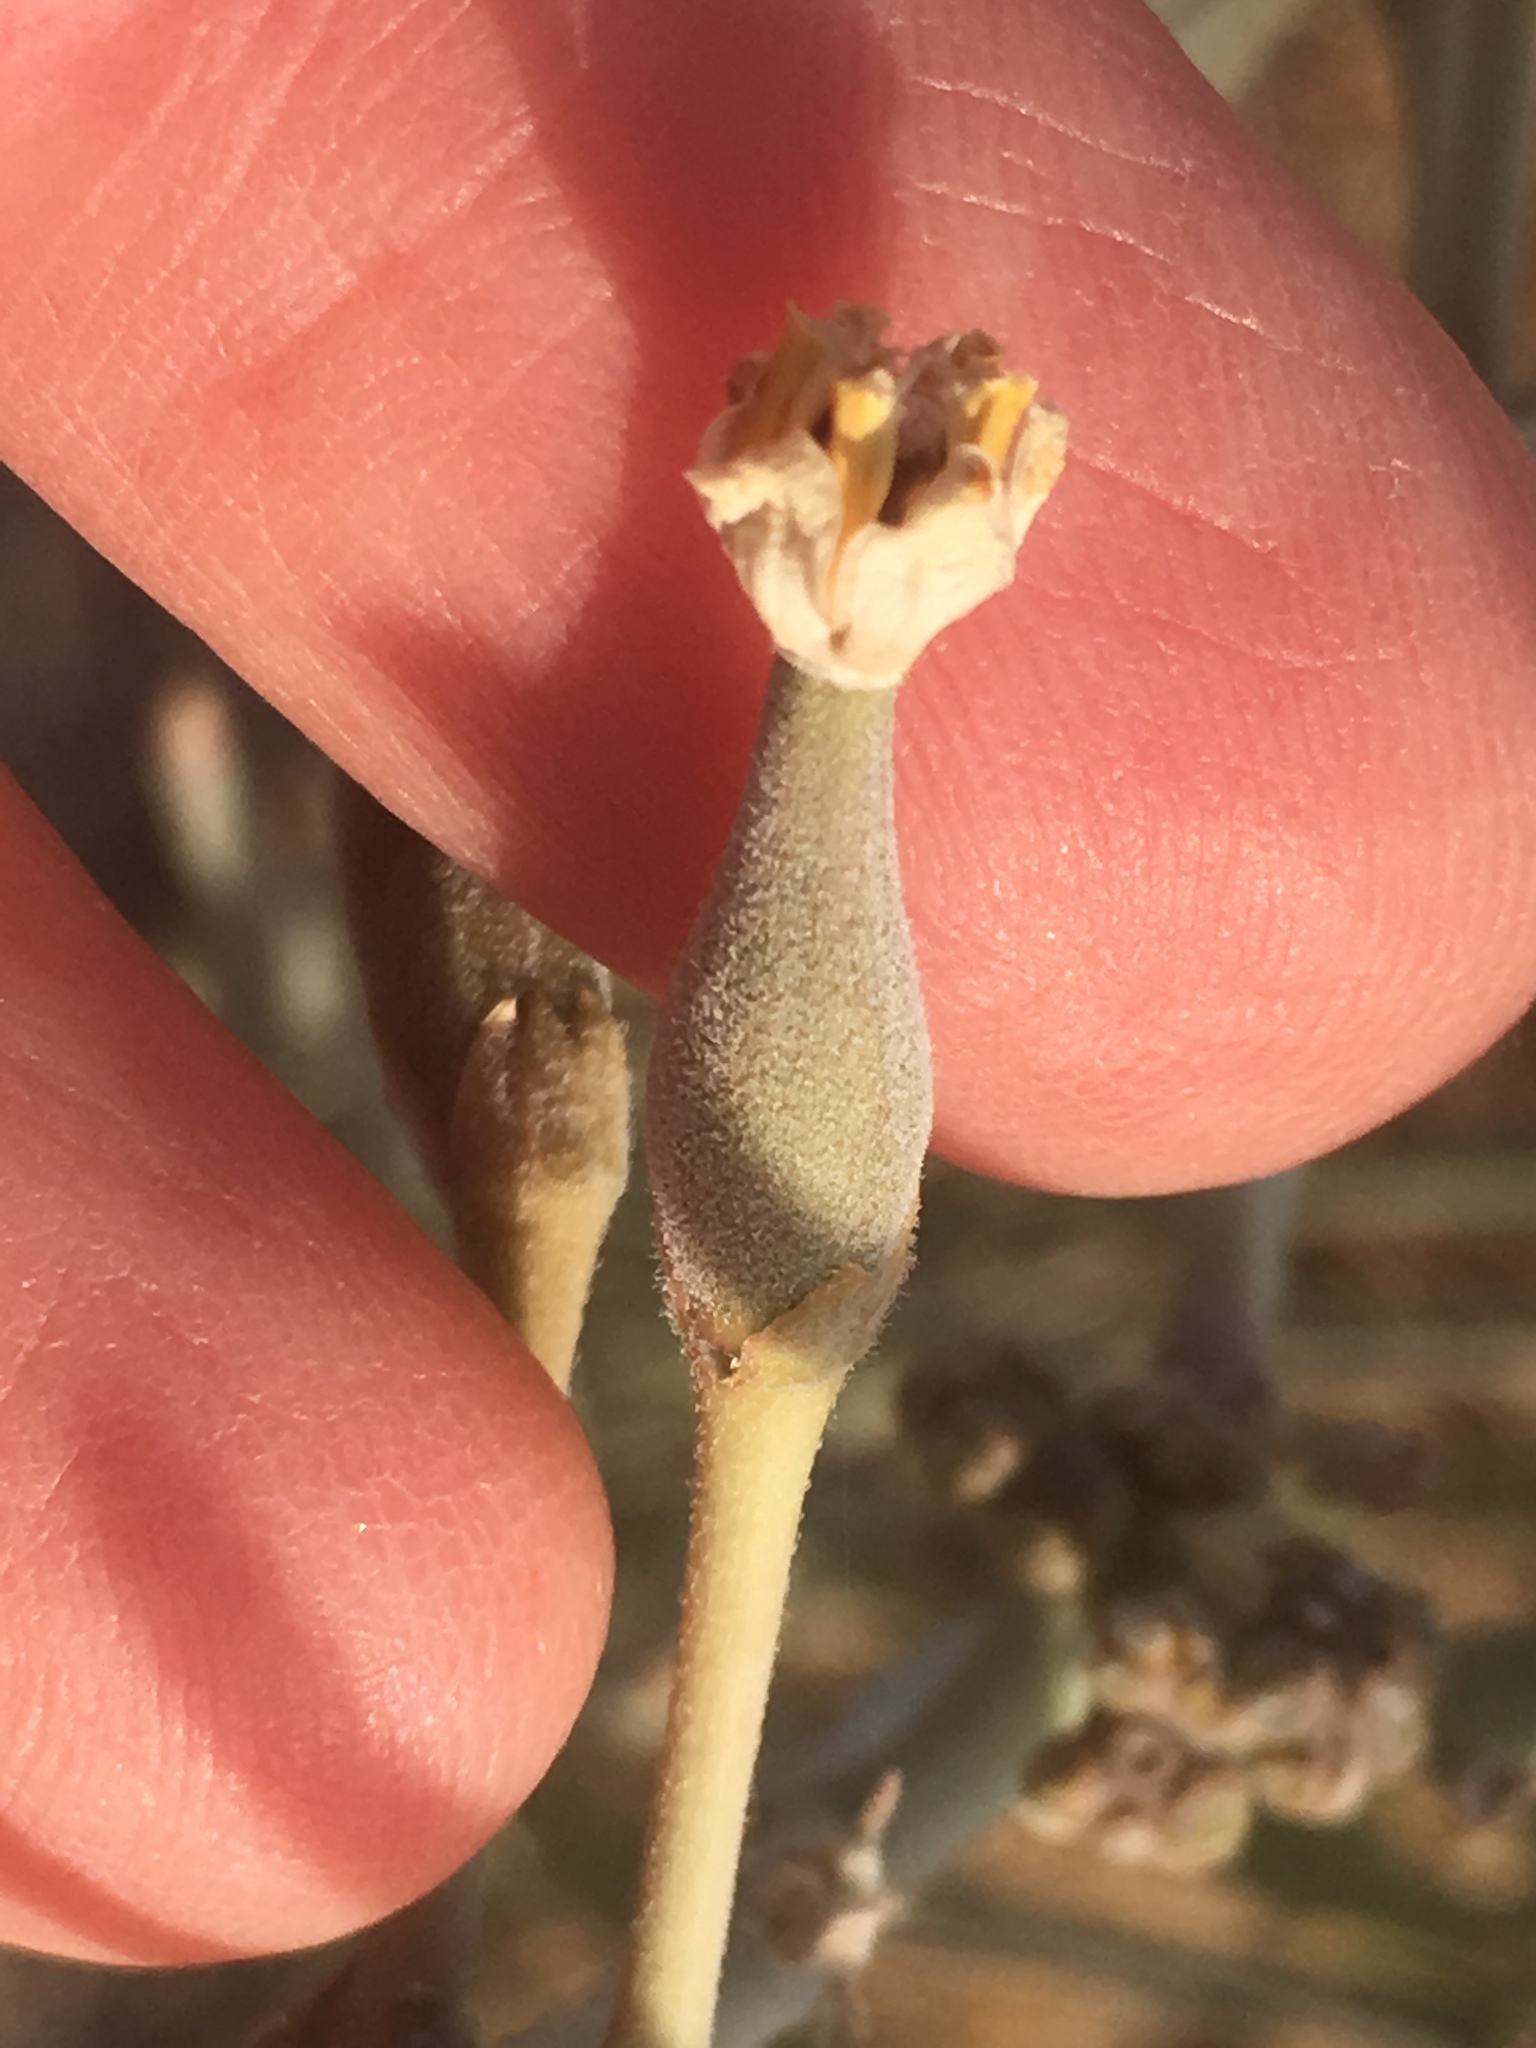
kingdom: Plantae
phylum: Tracheophyta
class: Magnoliopsida
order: Gentianales
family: Apocynaceae
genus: Asclepias
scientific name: Asclepias subulata
